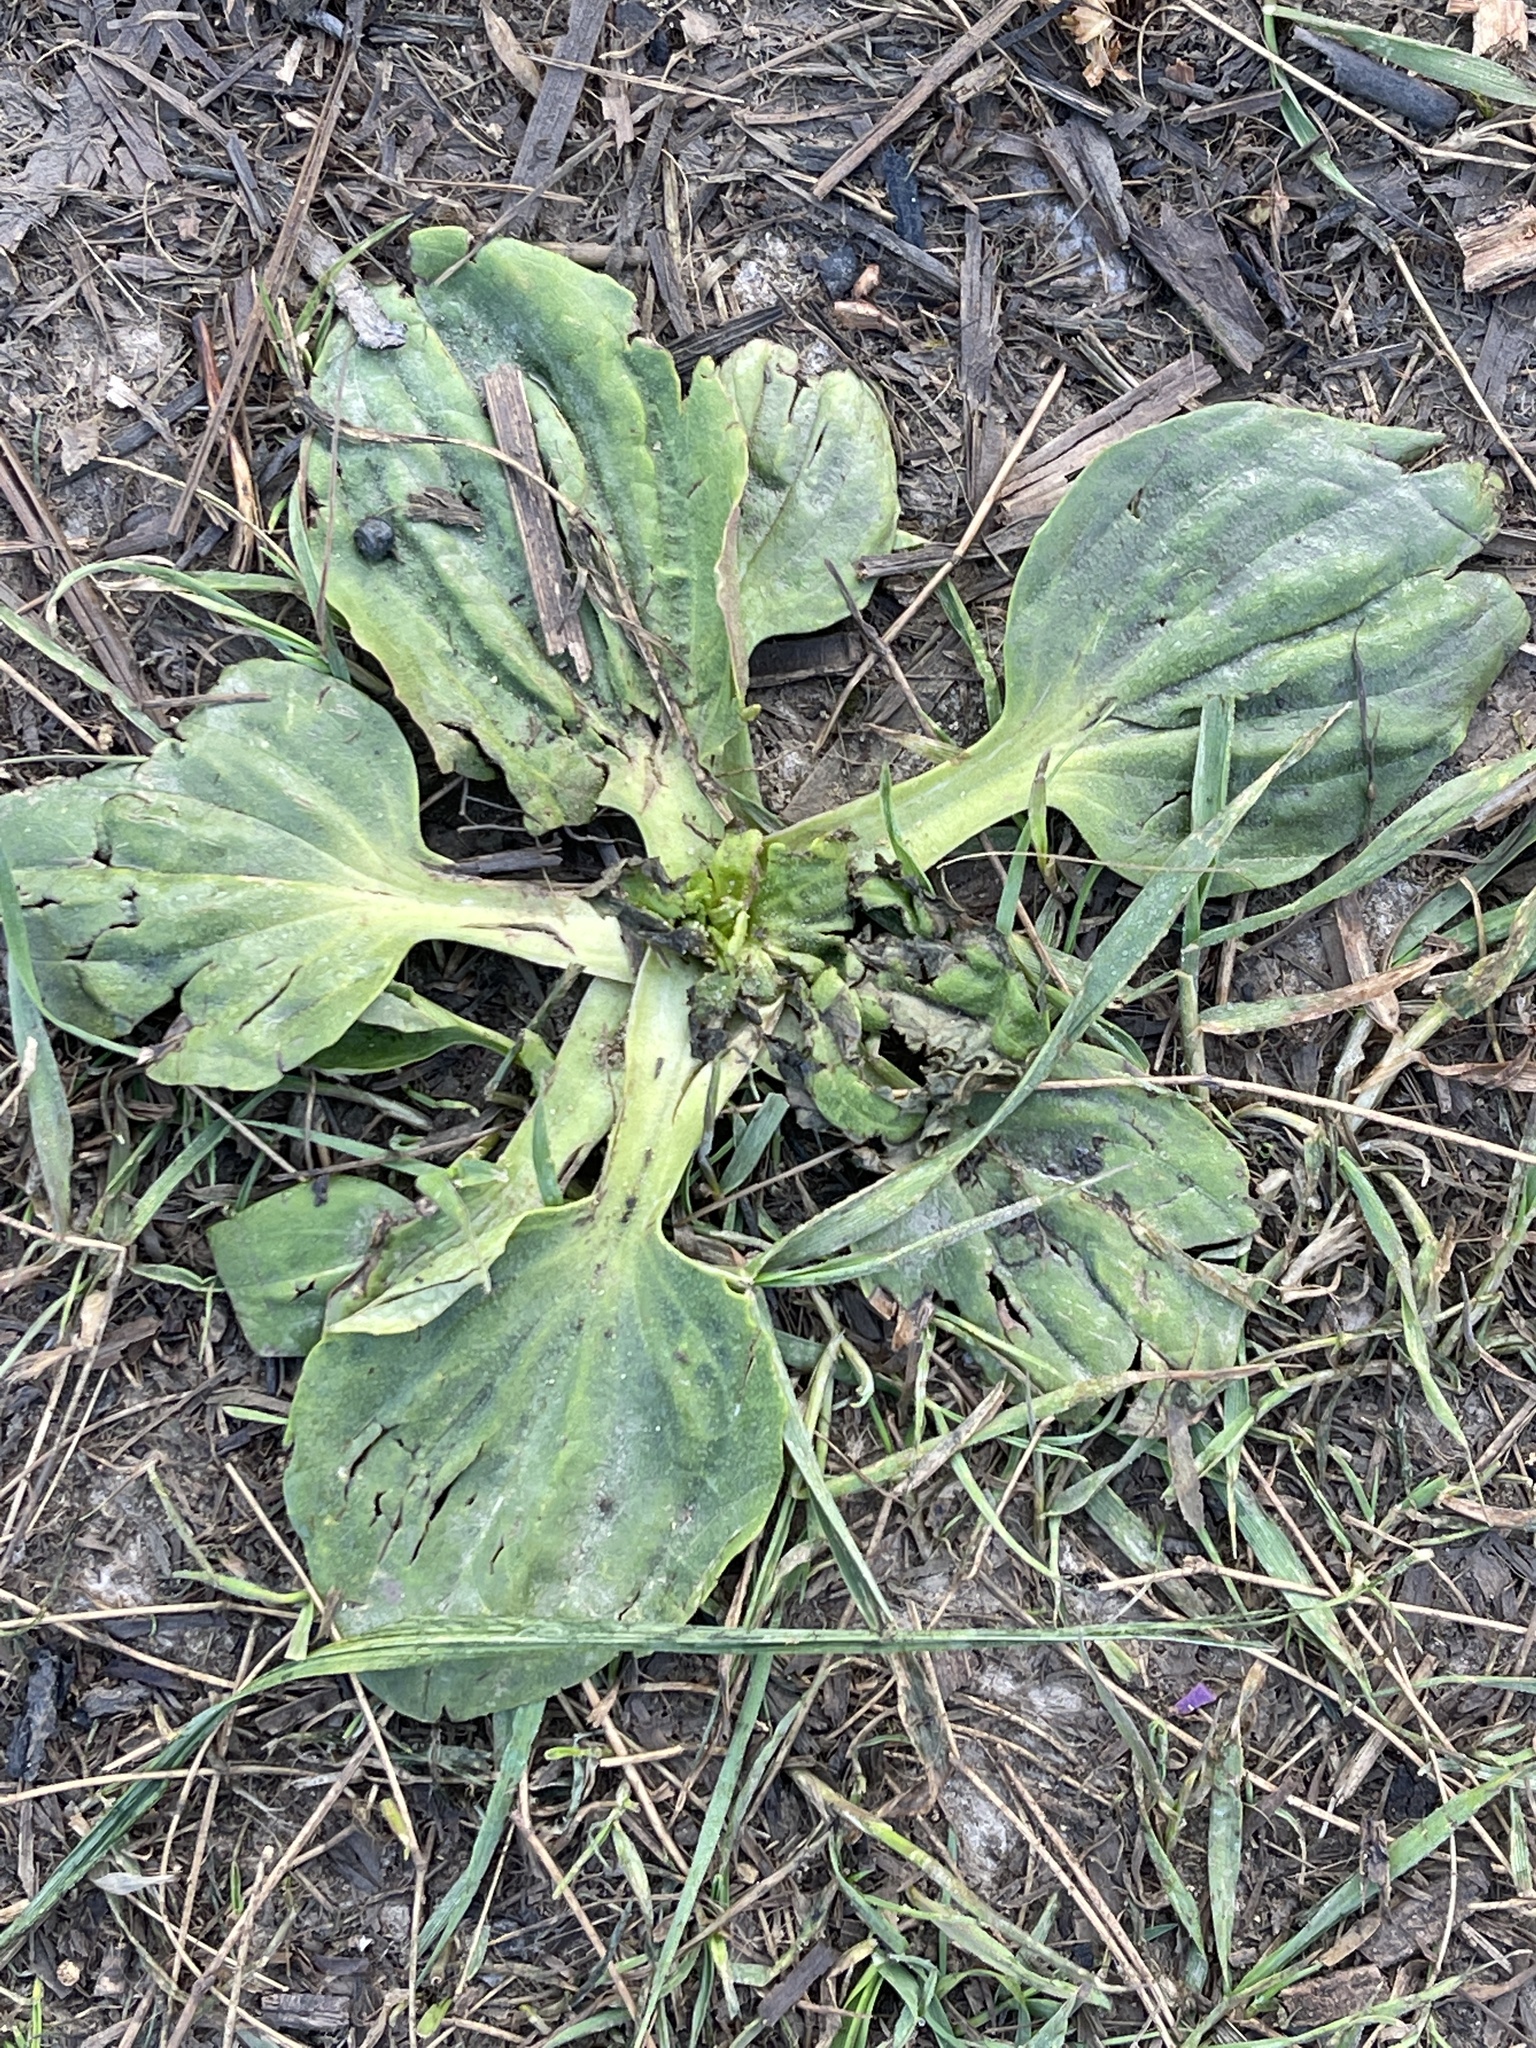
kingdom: Plantae
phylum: Tracheophyta
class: Magnoliopsida
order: Lamiales
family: Plantaginaceae
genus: Plantago
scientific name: Plantago major
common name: Common plantain
